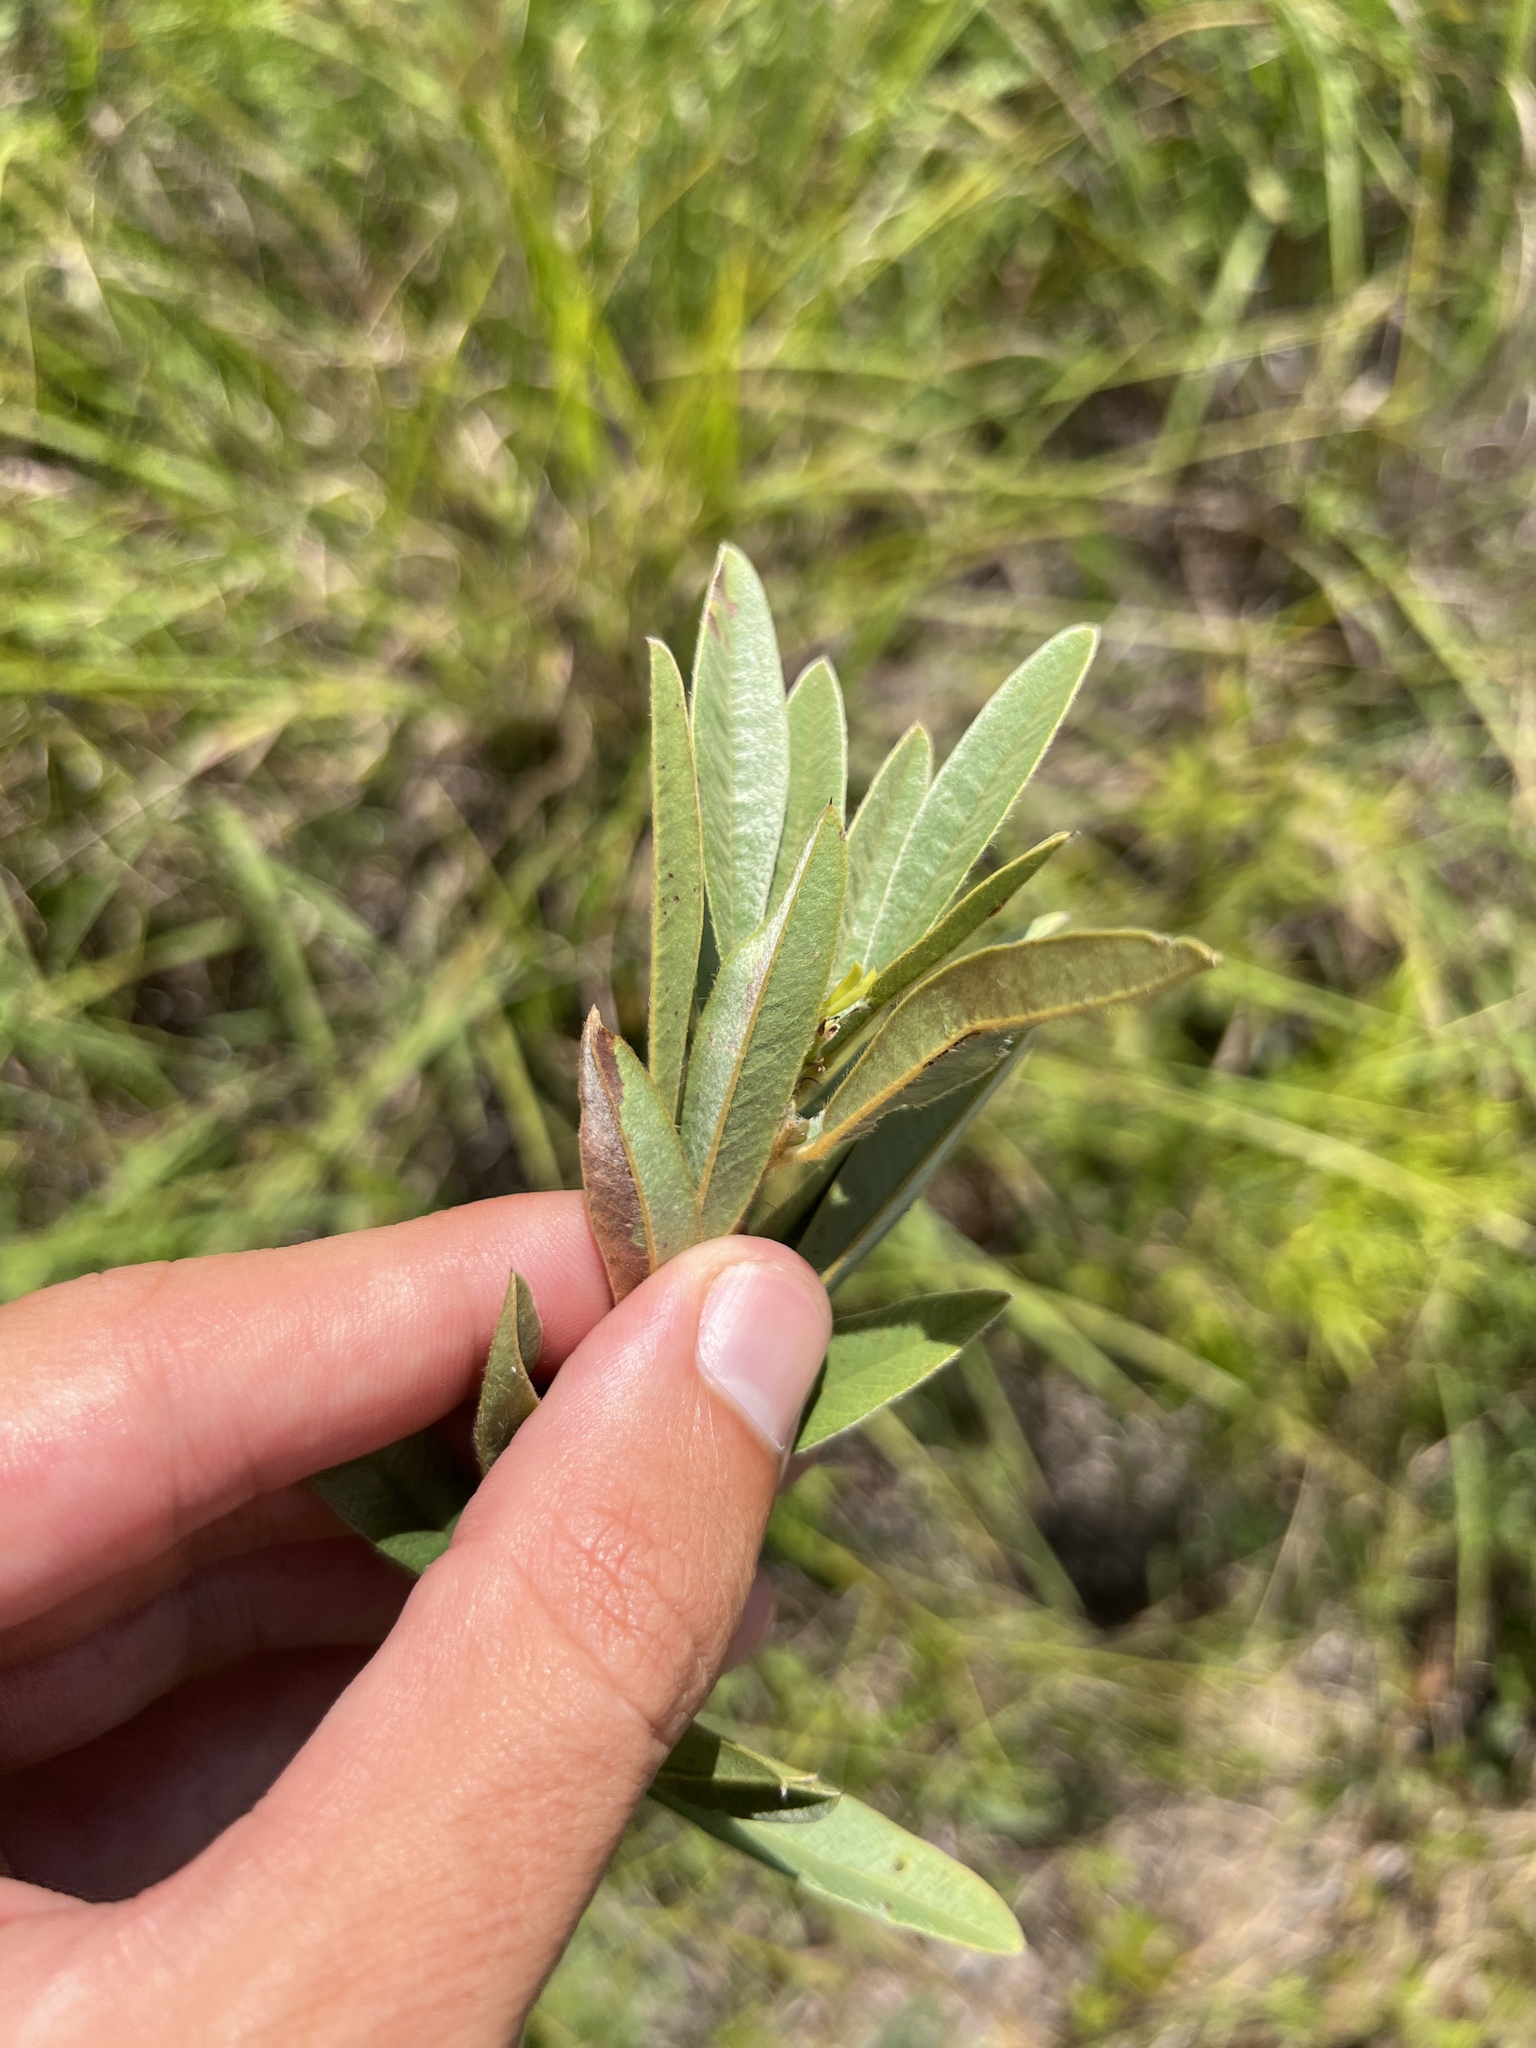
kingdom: Plantae
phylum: Tracheophyta
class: Magnoliopsida
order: Fabales
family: Fabaceae
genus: Lespedeza
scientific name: Lespedeza capitata
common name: Dusty clover
